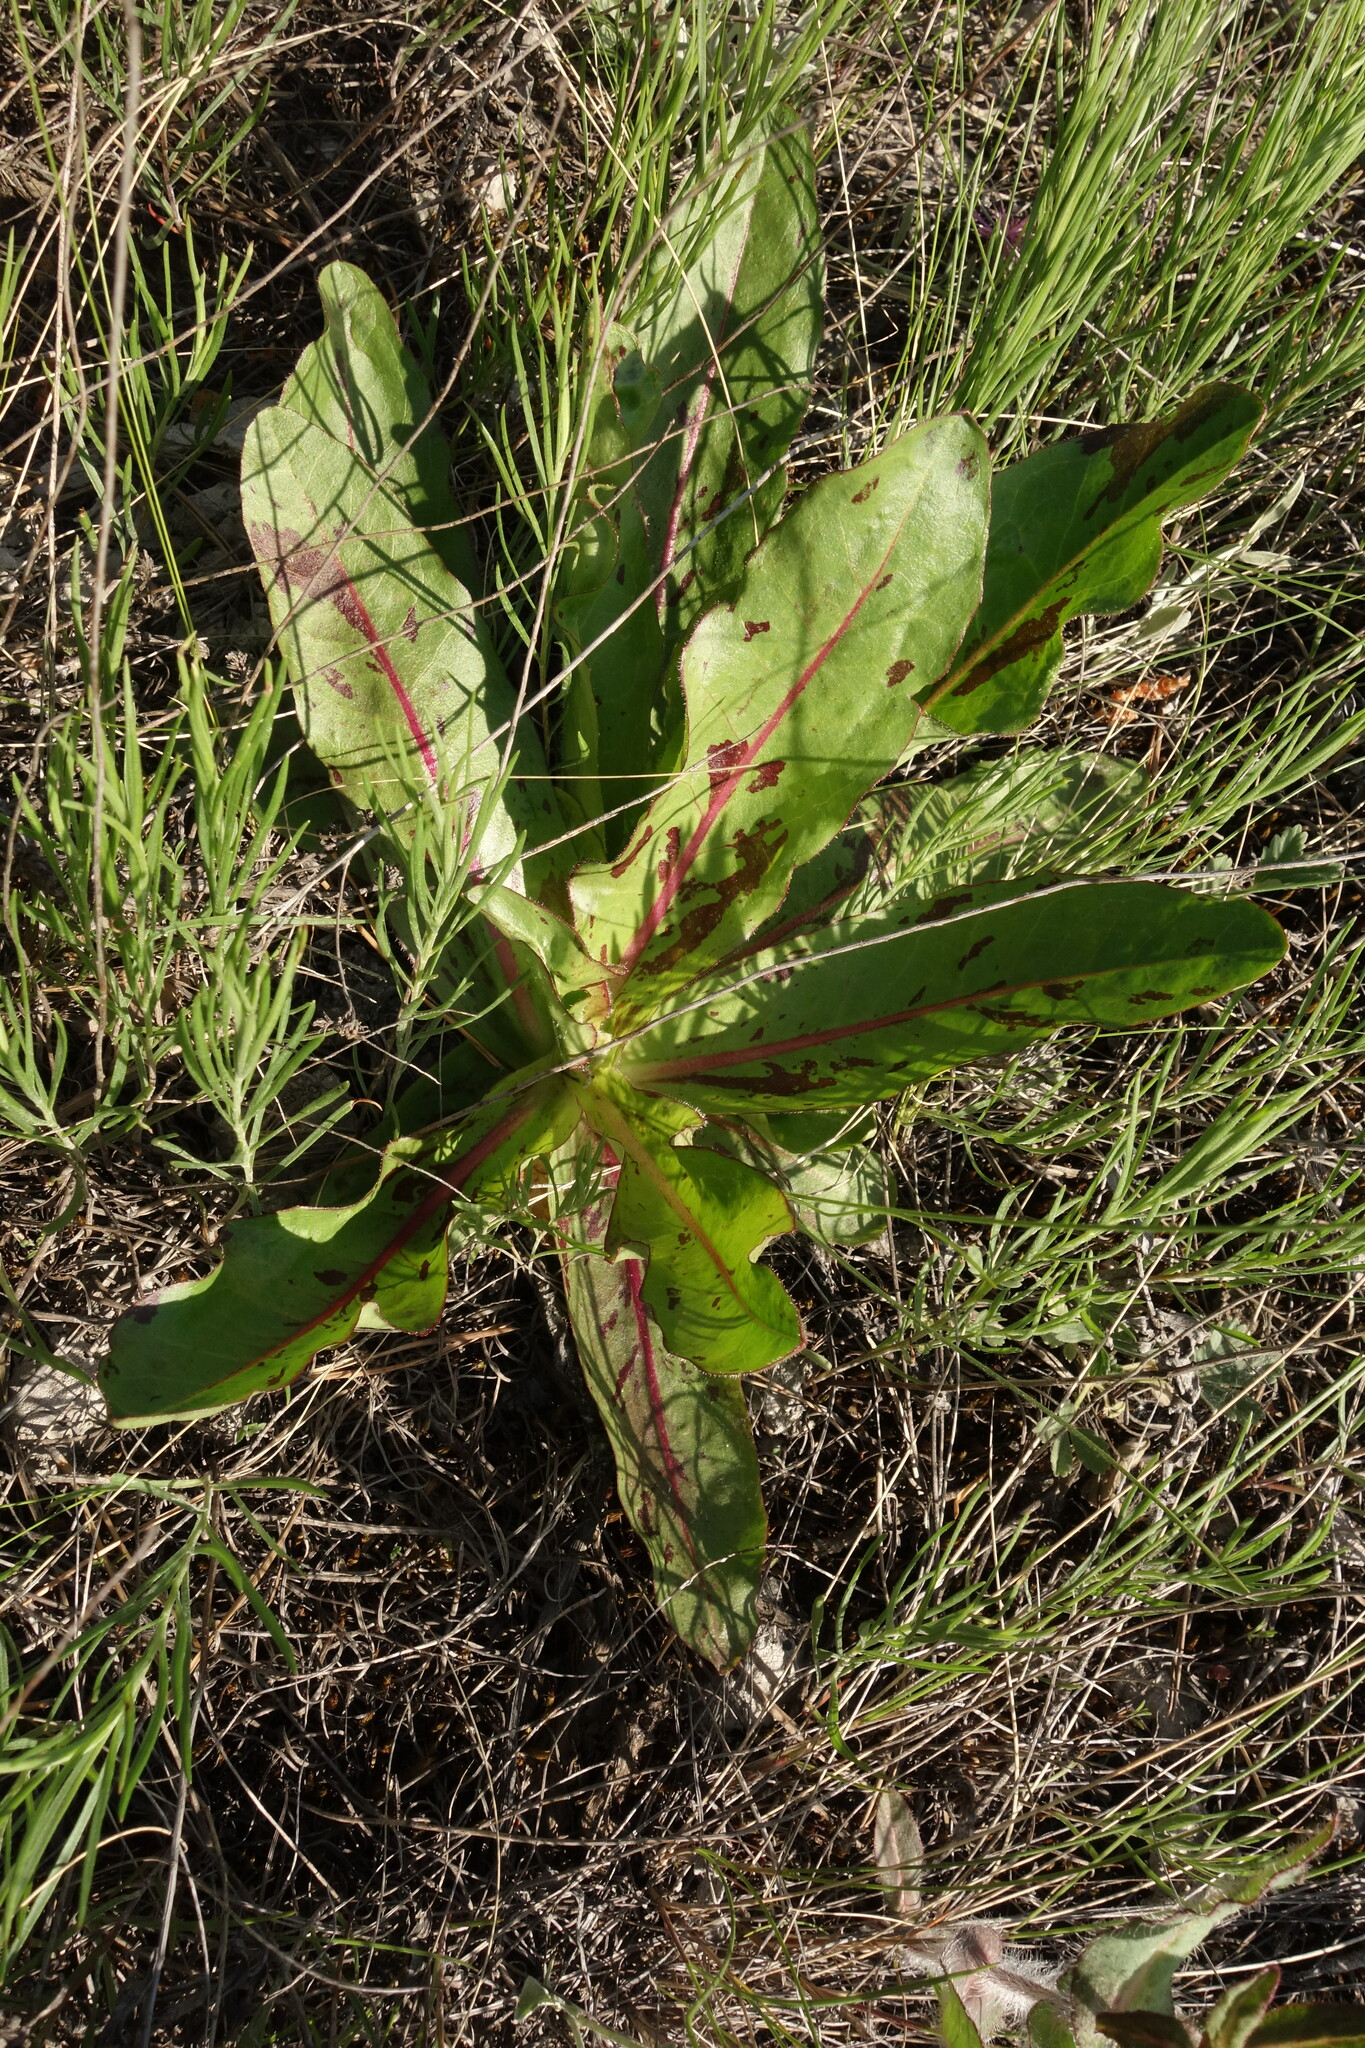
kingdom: Plantae
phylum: Tracheophyta
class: Magnoliopsida
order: Asterales
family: Asteraceae
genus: Trommsdorffia
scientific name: Trommsdorffia maculata
